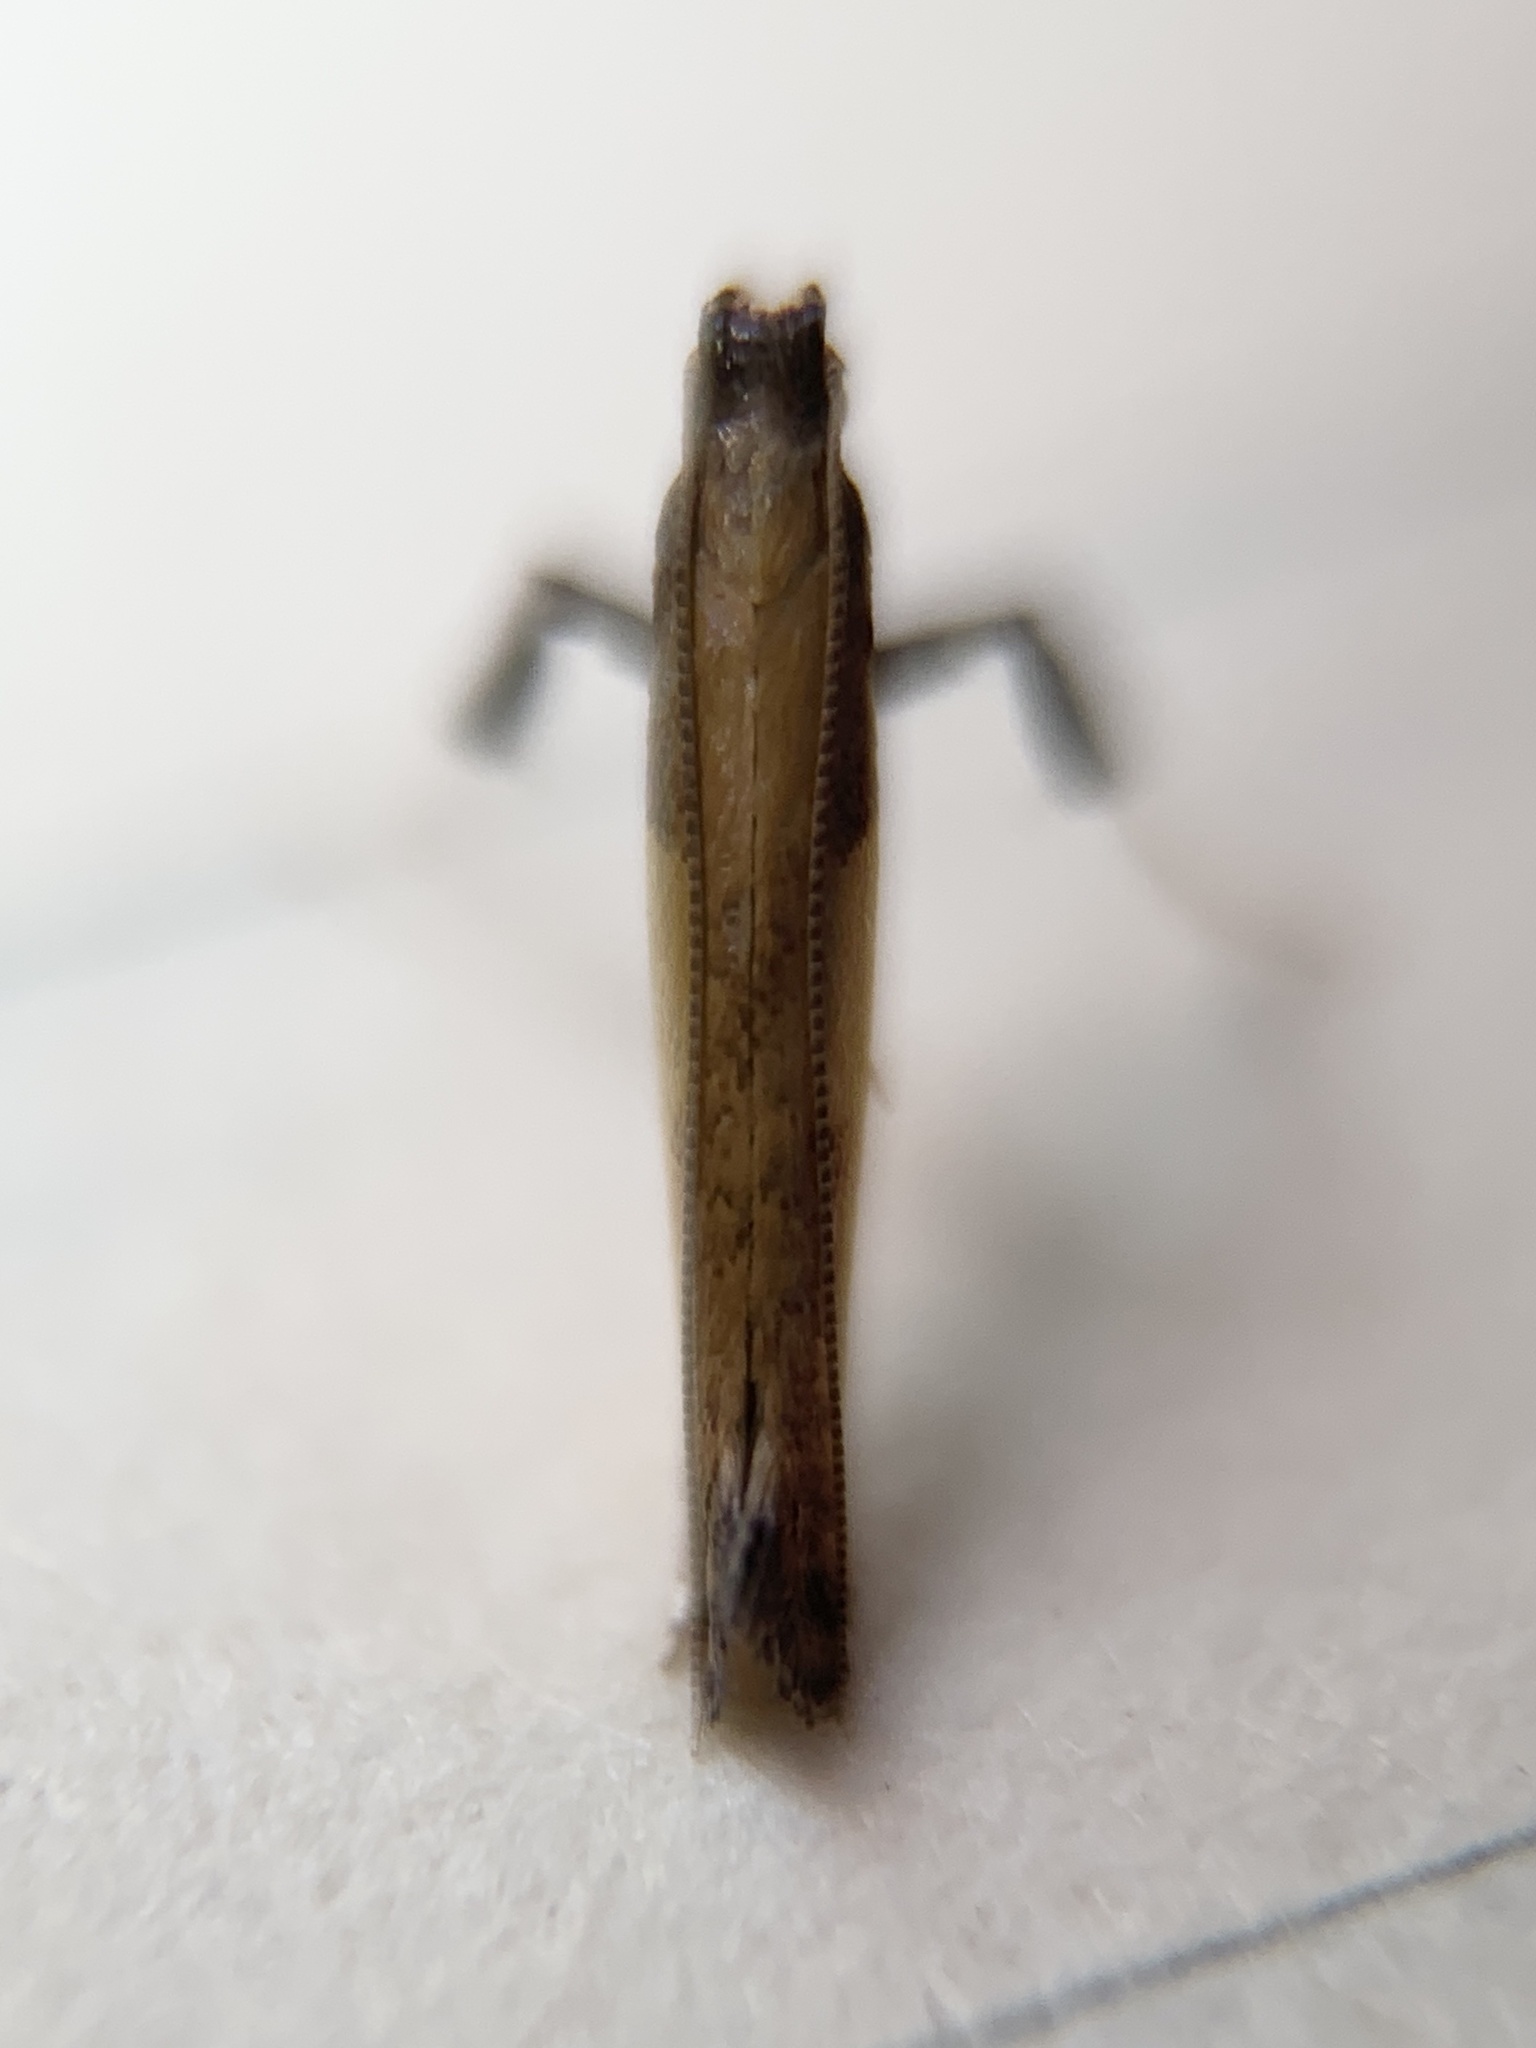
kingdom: Animalia
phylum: Arthropoda
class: Insecta
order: Lepidoptera
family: Gracillariidae
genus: Caloptilia
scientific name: Caloptilia superbifrontella
